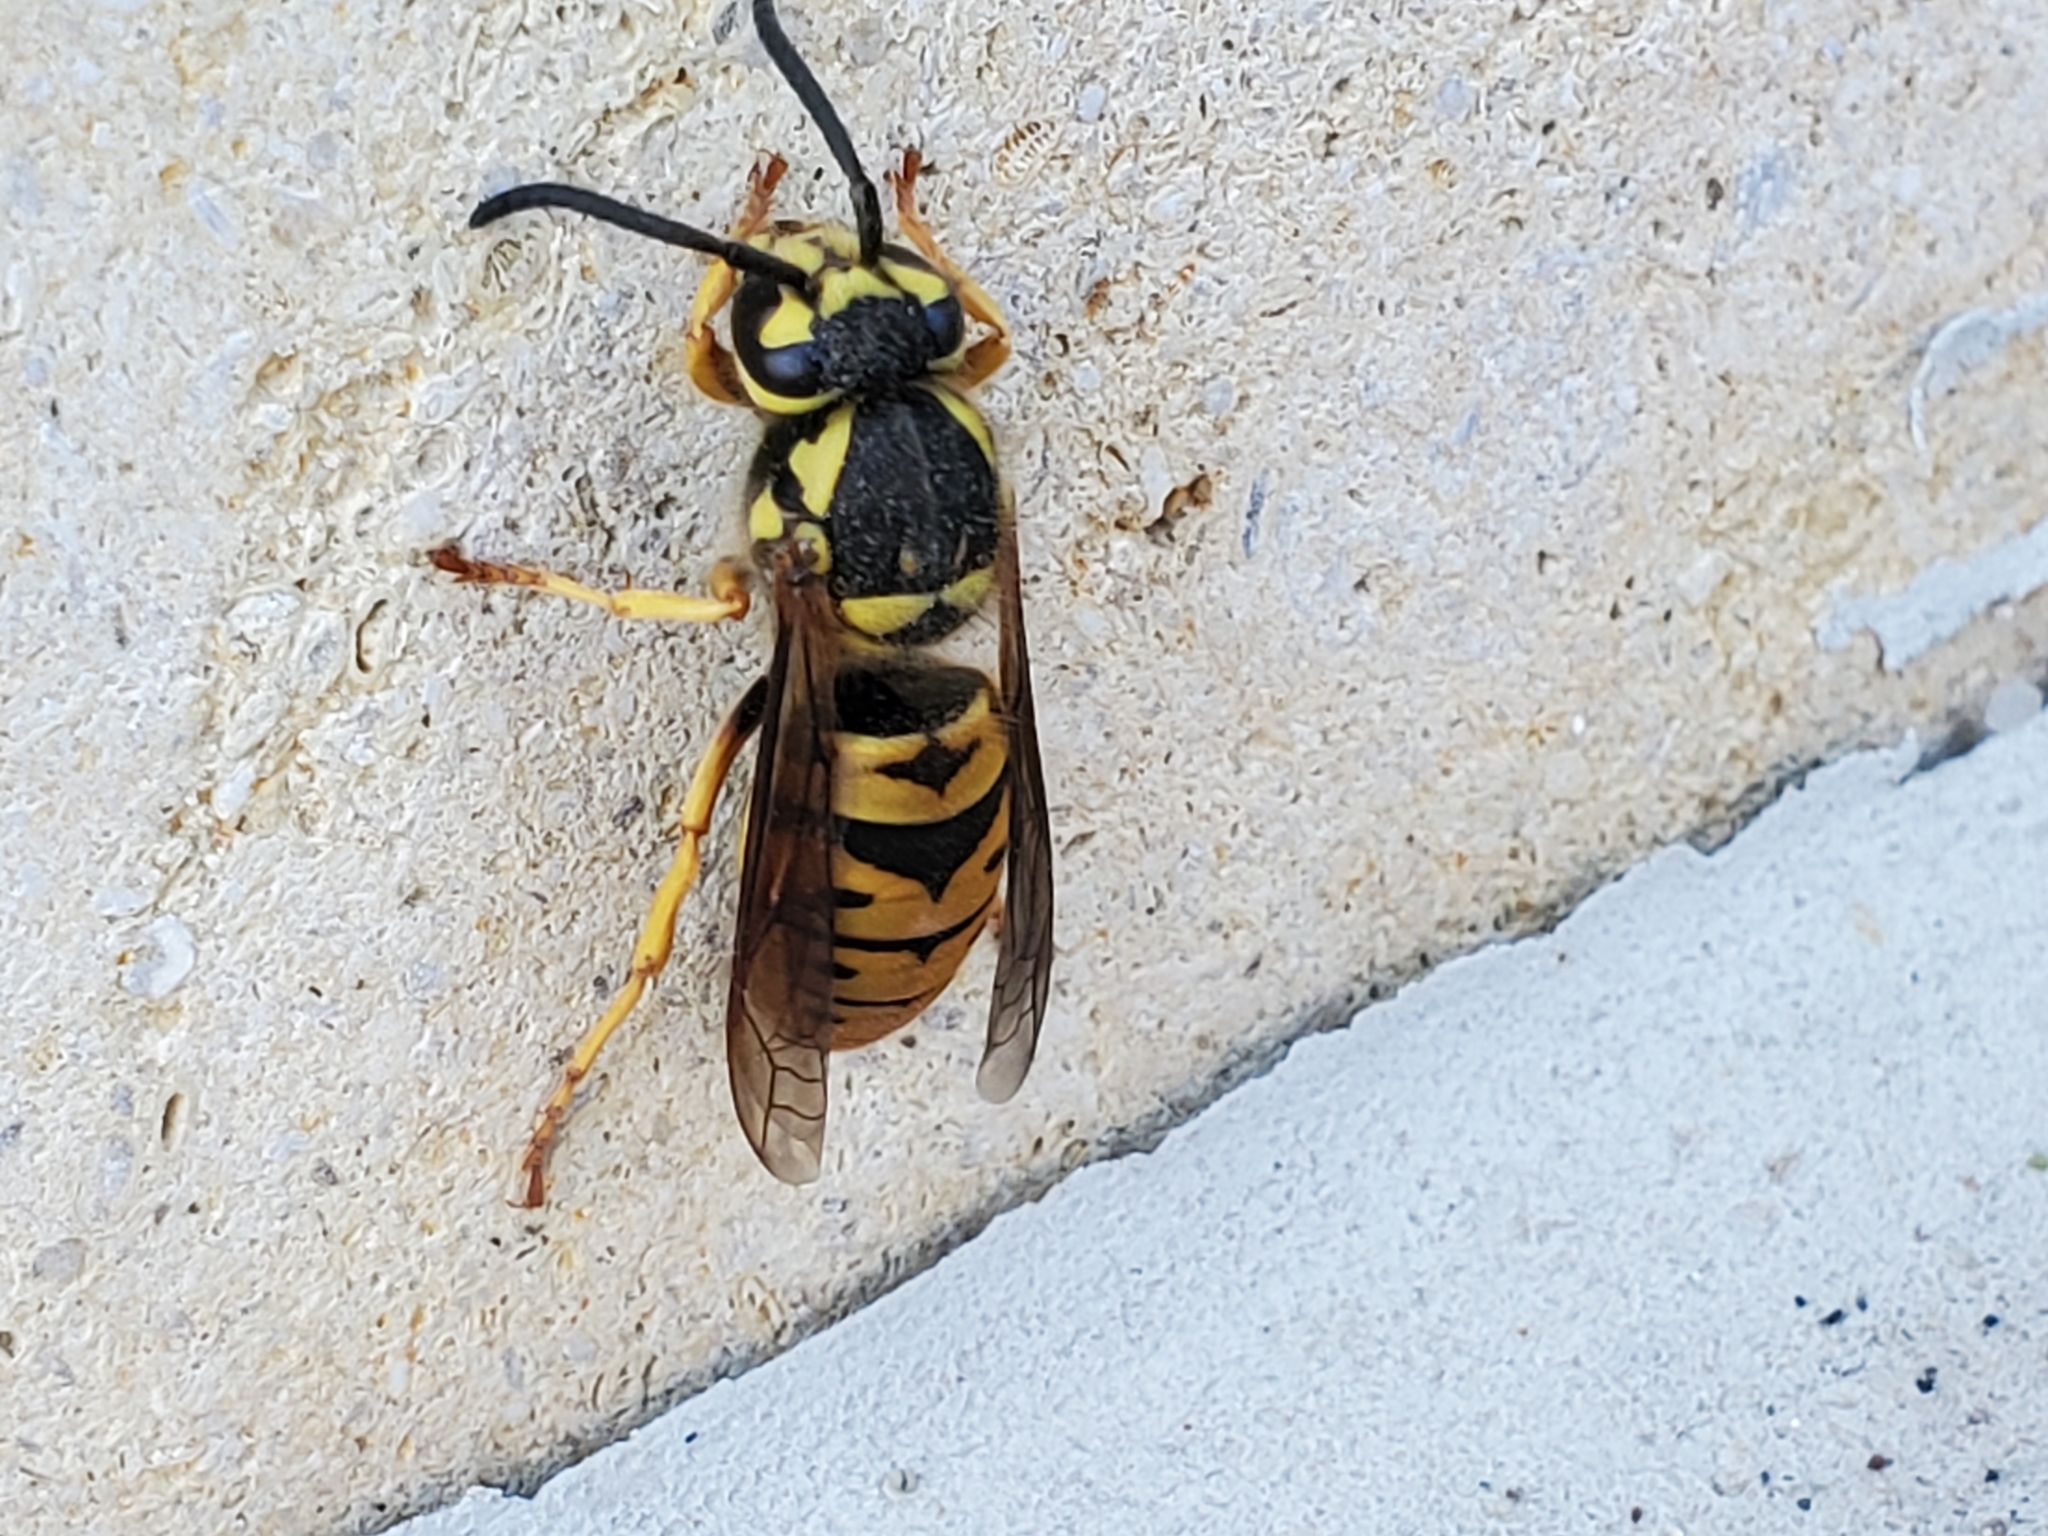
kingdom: Animalia
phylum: Arthropoda
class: Insecta
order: Hymenoptera
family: Vespidae
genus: Vespula
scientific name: Vespula maculifrons
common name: Eastern yellowjacket
